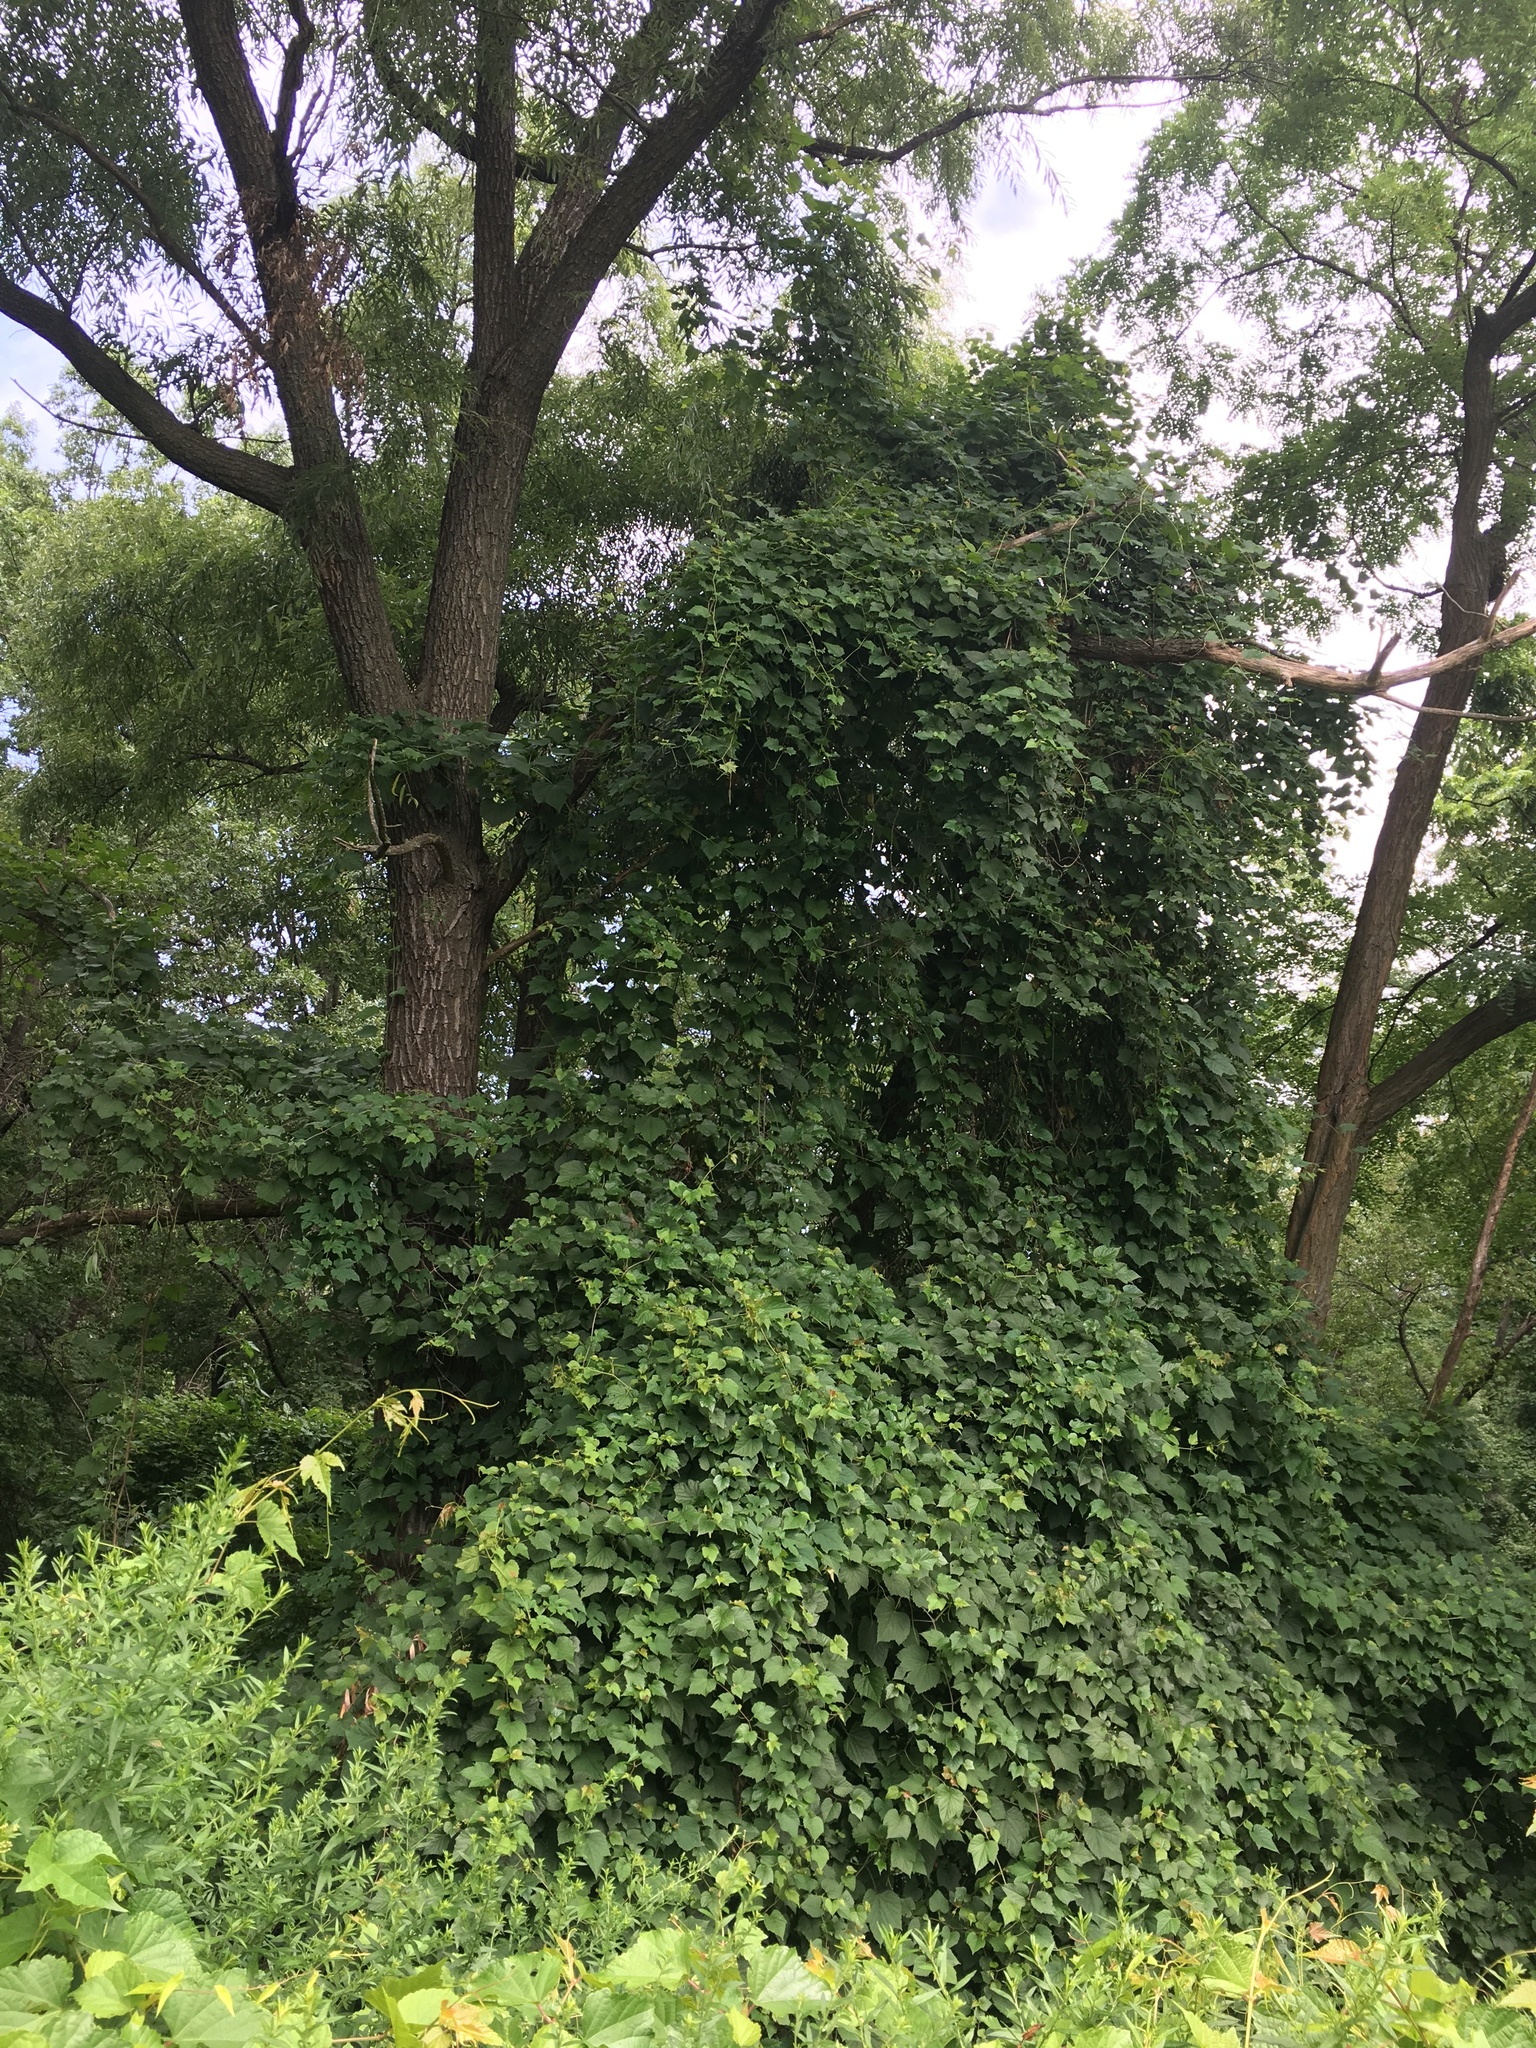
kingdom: Plantae
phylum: Tracheophyta
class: Magnoliopsida
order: Vitales
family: Vitaceae
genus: Ampelopsis
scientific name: Ampelopsis glandulosa
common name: Amur peppervine
